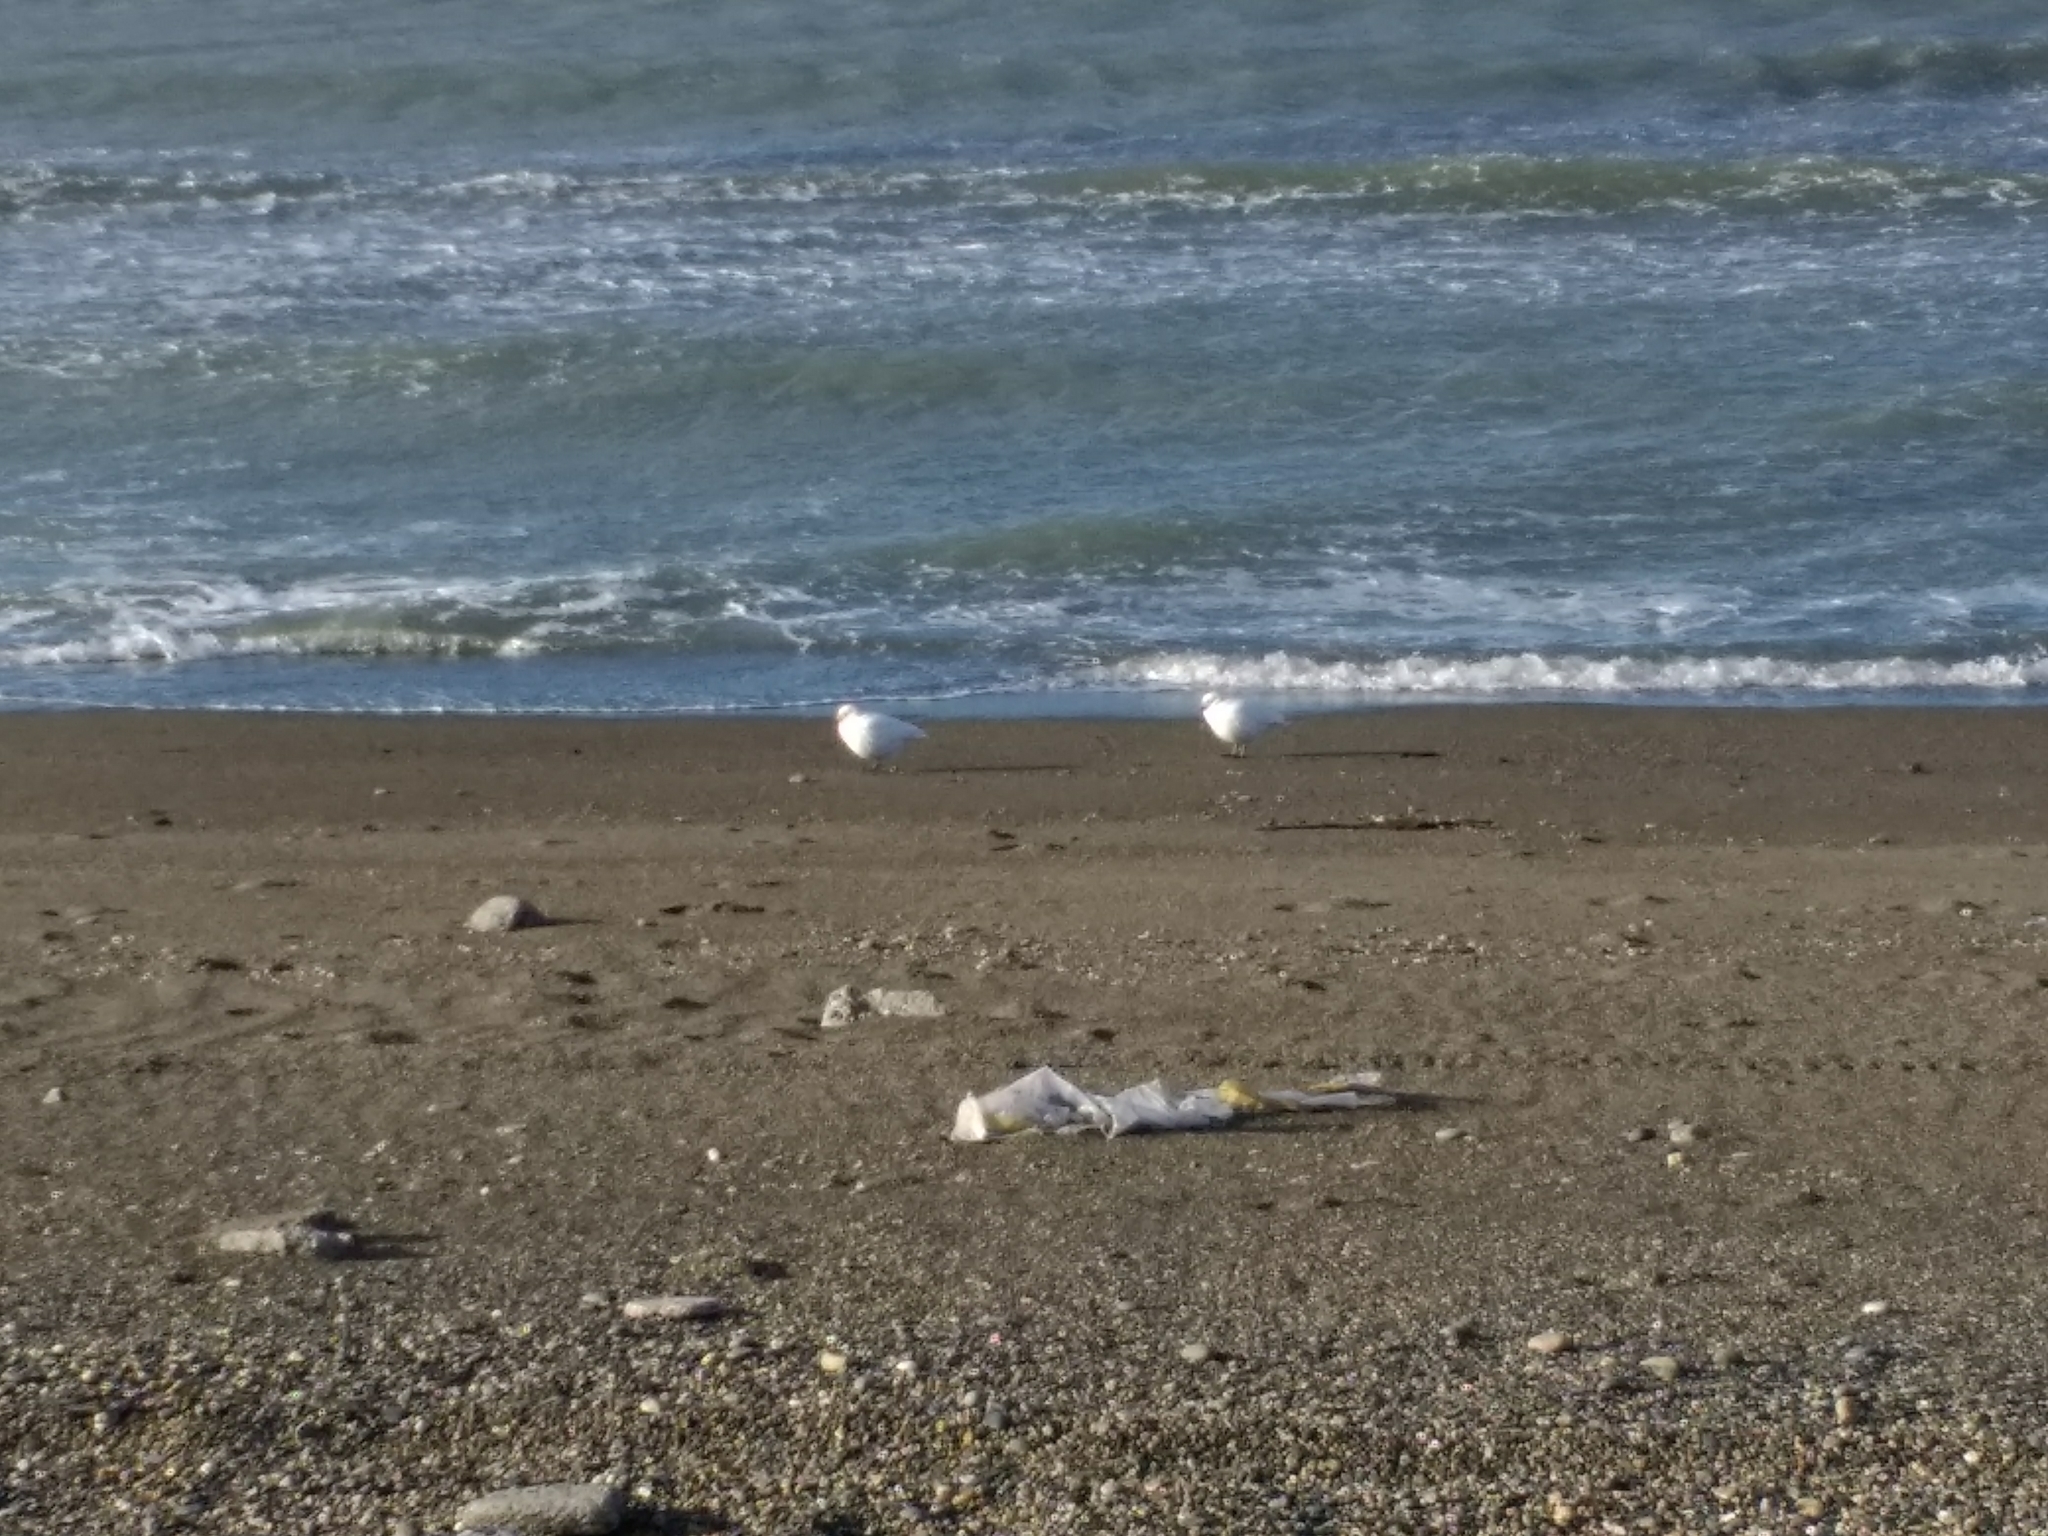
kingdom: Animalia
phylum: Chordata
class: Aves
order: Charadriiformes
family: Chionidae
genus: Chionis
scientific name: Chionis albus
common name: Snowy sheathbill
